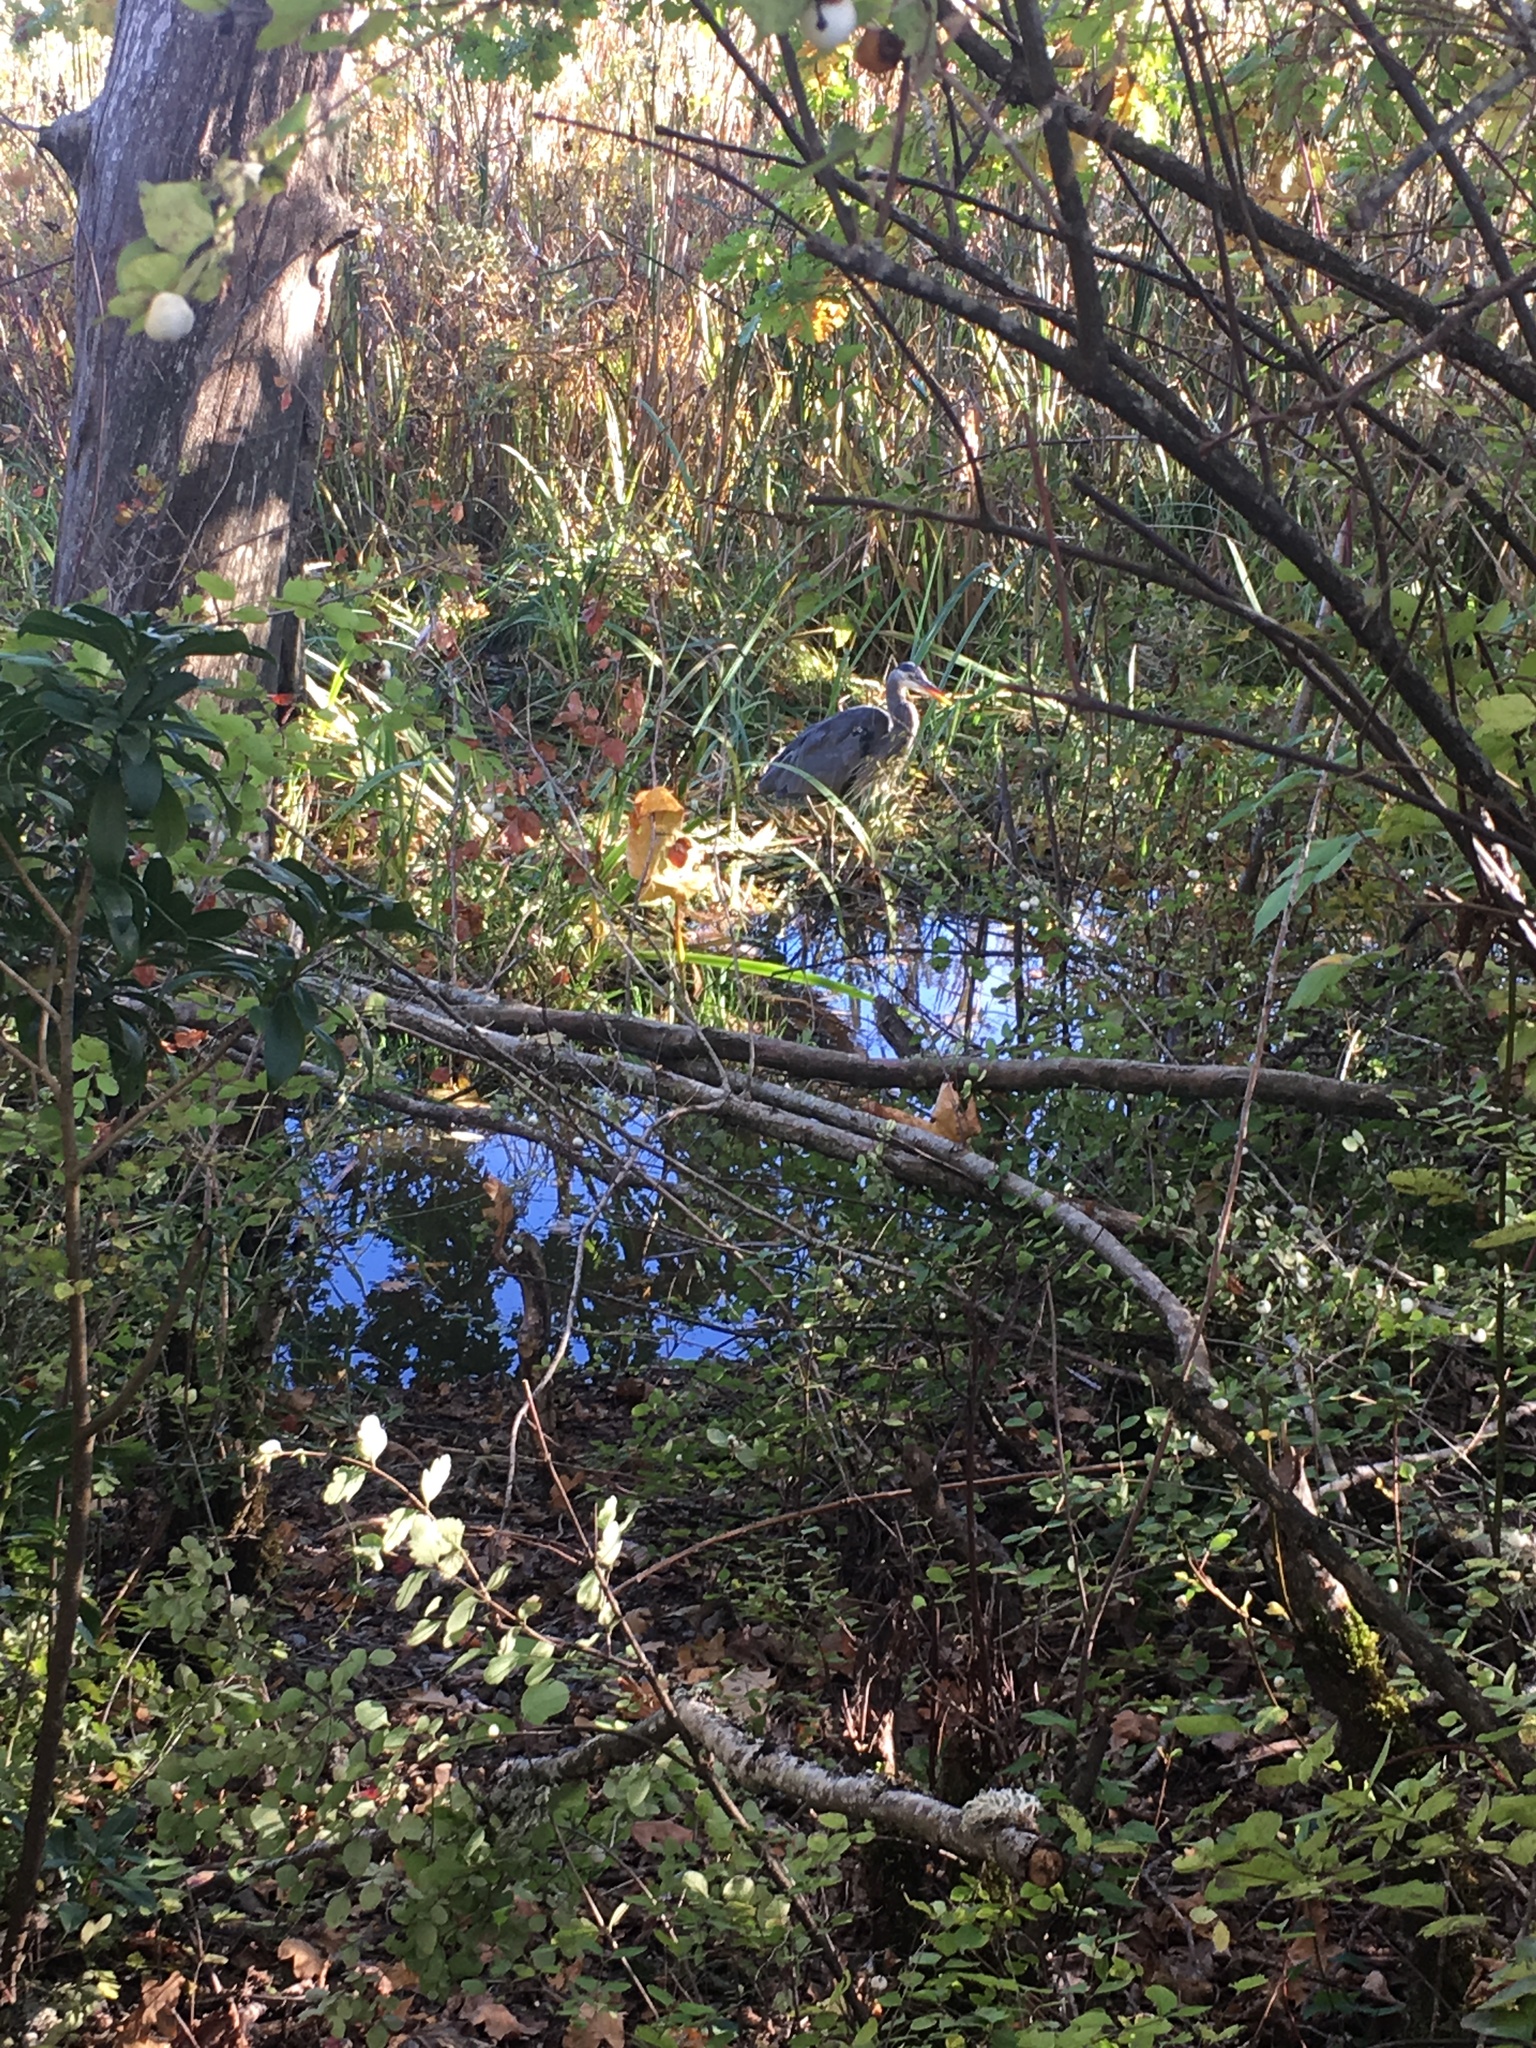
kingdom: Animalia
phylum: Chordata
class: Aves
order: Pelecaniformes
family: Ardeidae
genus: Ardea
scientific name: Ardea herodias
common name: Great blue heron
